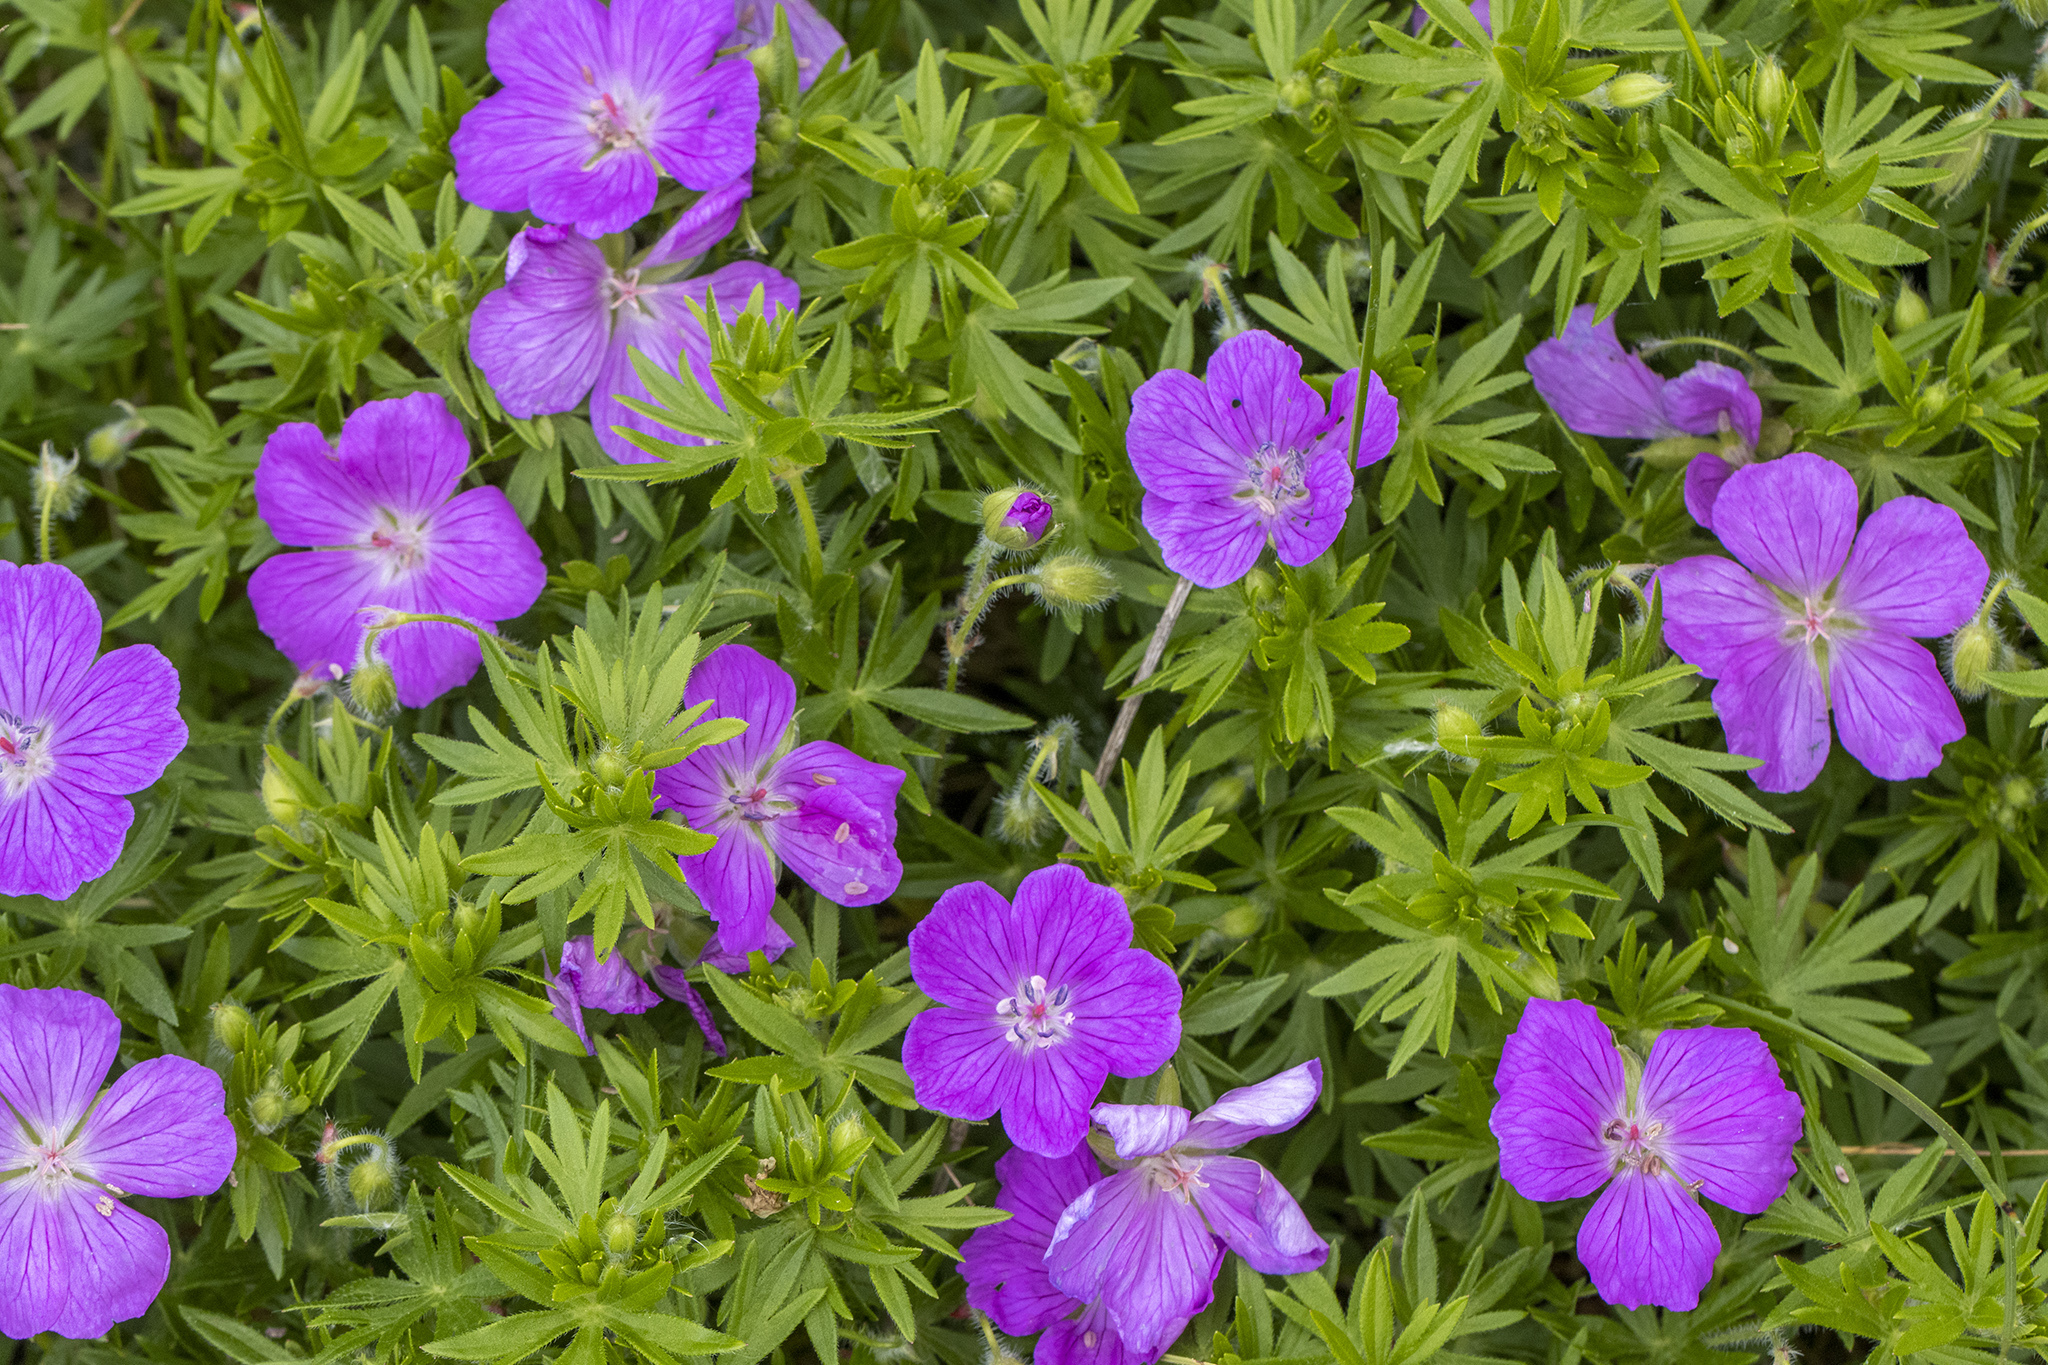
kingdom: Plantae
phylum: Tracheophyta
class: Magnoliopsida
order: Geraniales
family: Geraniaceae
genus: Geranium
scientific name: Geranium sanguineum
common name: Bloody crane's-bill
